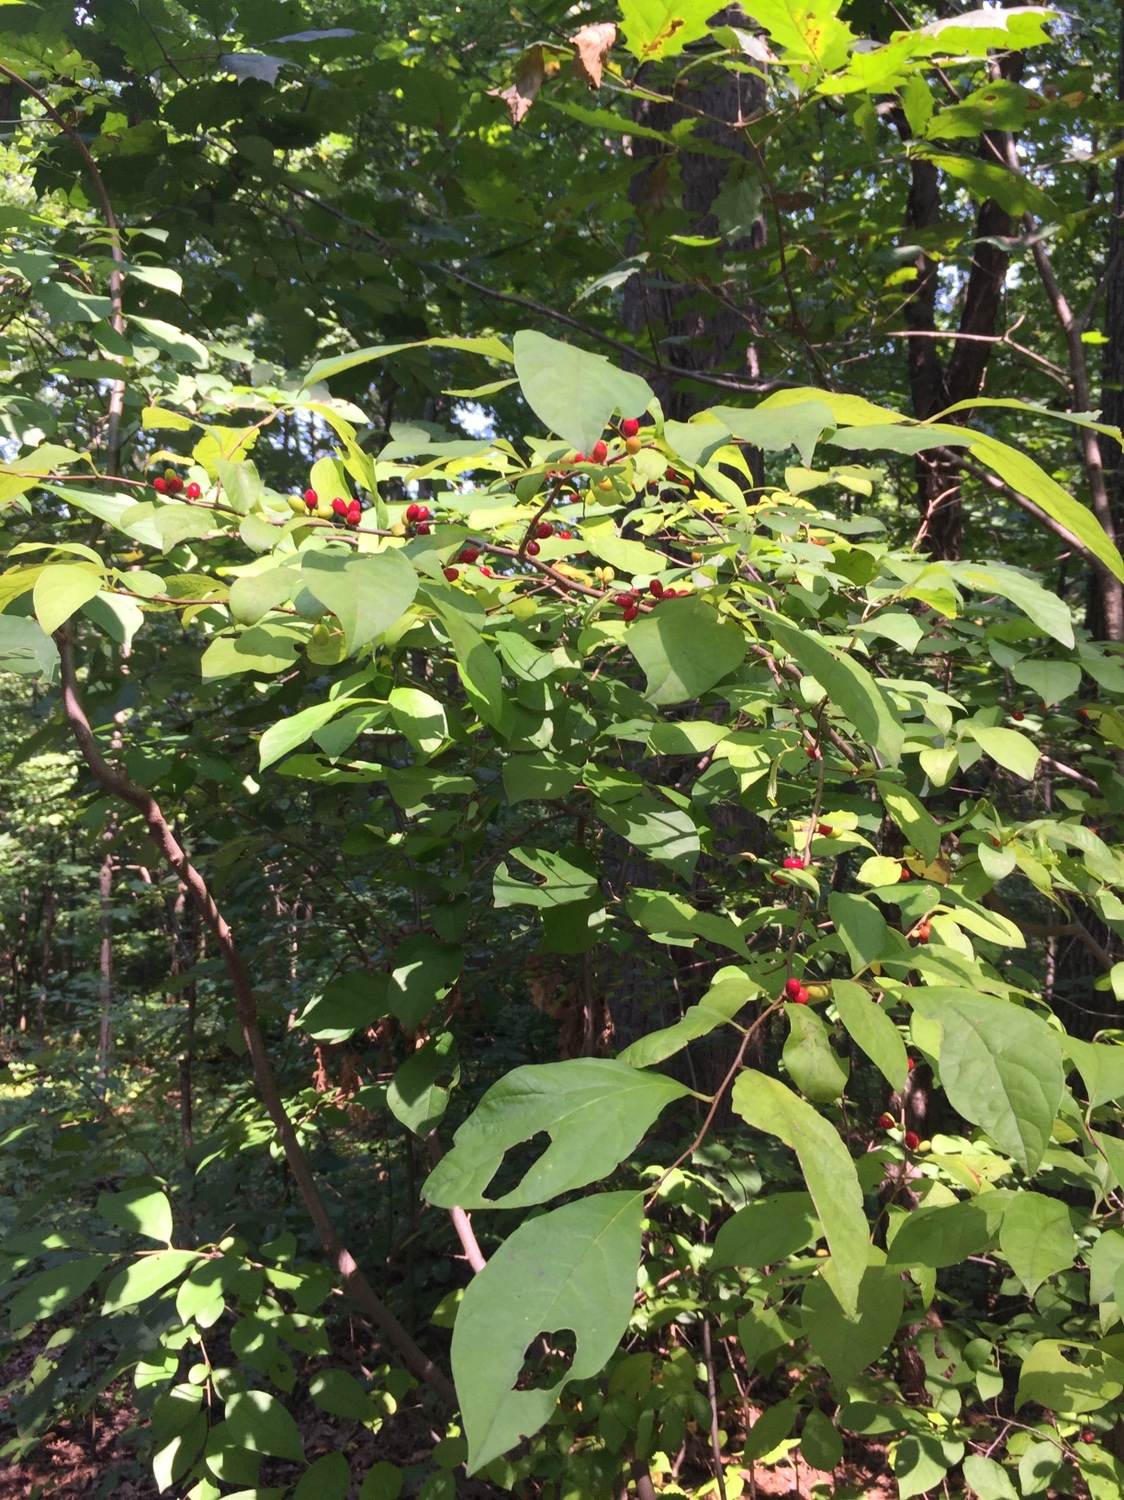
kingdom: Plantae
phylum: Tracheophyta
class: Magnoliopsida
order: Laurales
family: Lauraceae
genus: Lindera
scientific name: Lindera benzoin
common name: Spicebush
